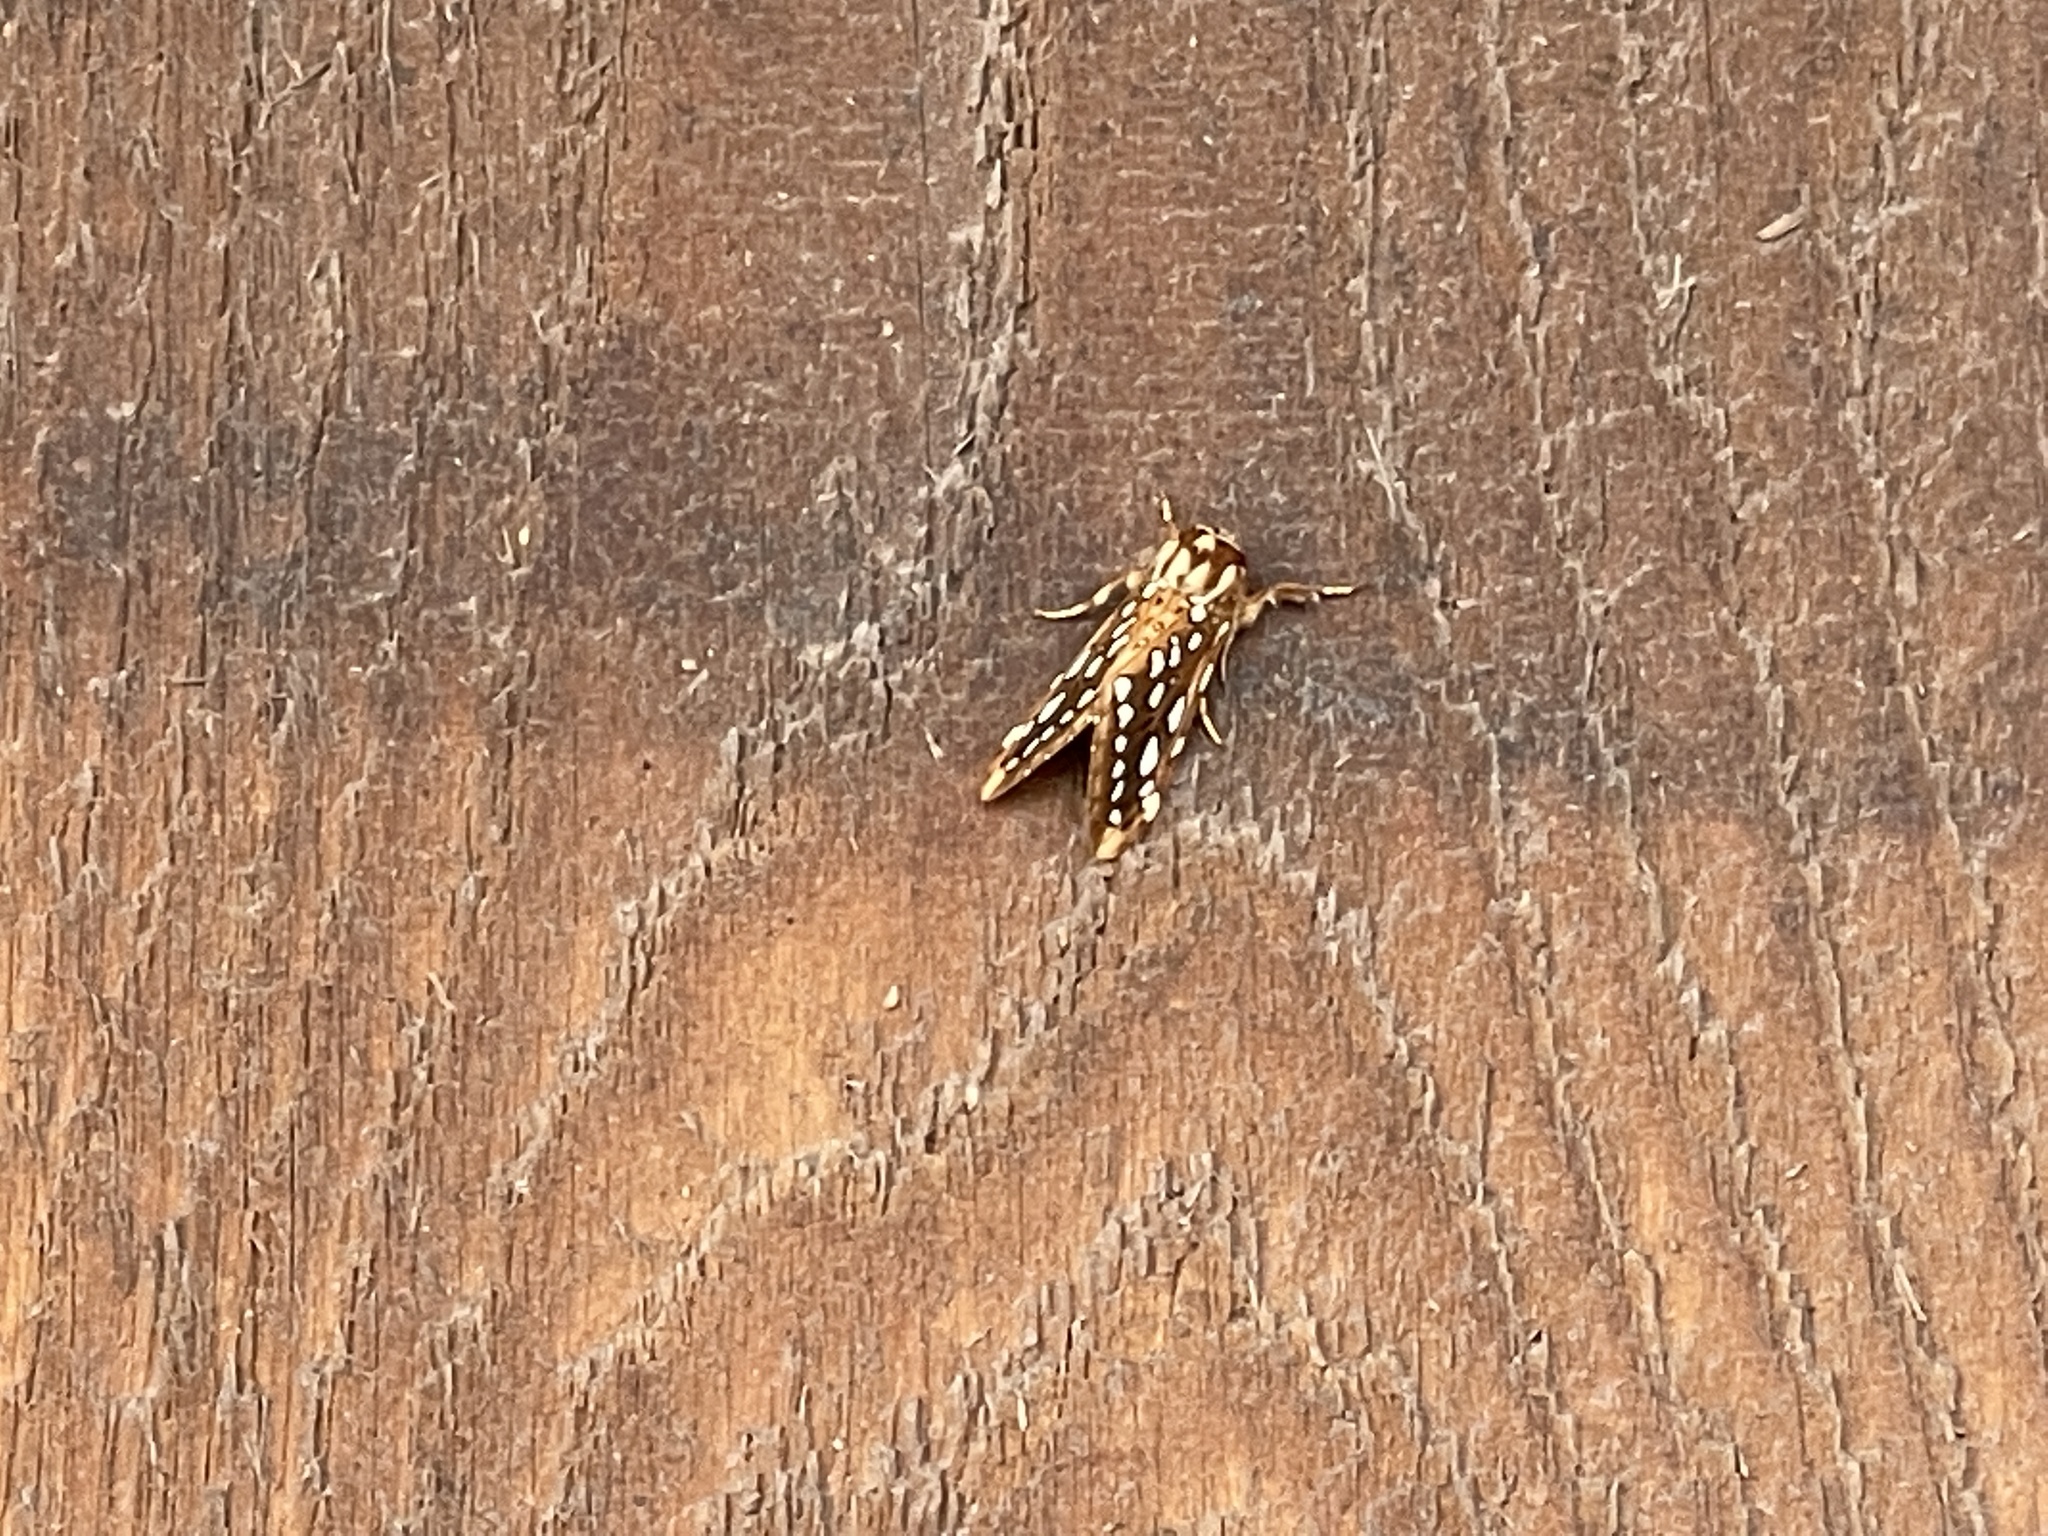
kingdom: Animalia
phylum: Arthropoda
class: Insecta
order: Lepidoptera
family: Erebidae
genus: Lophocampa
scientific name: Lophocampa argentata
